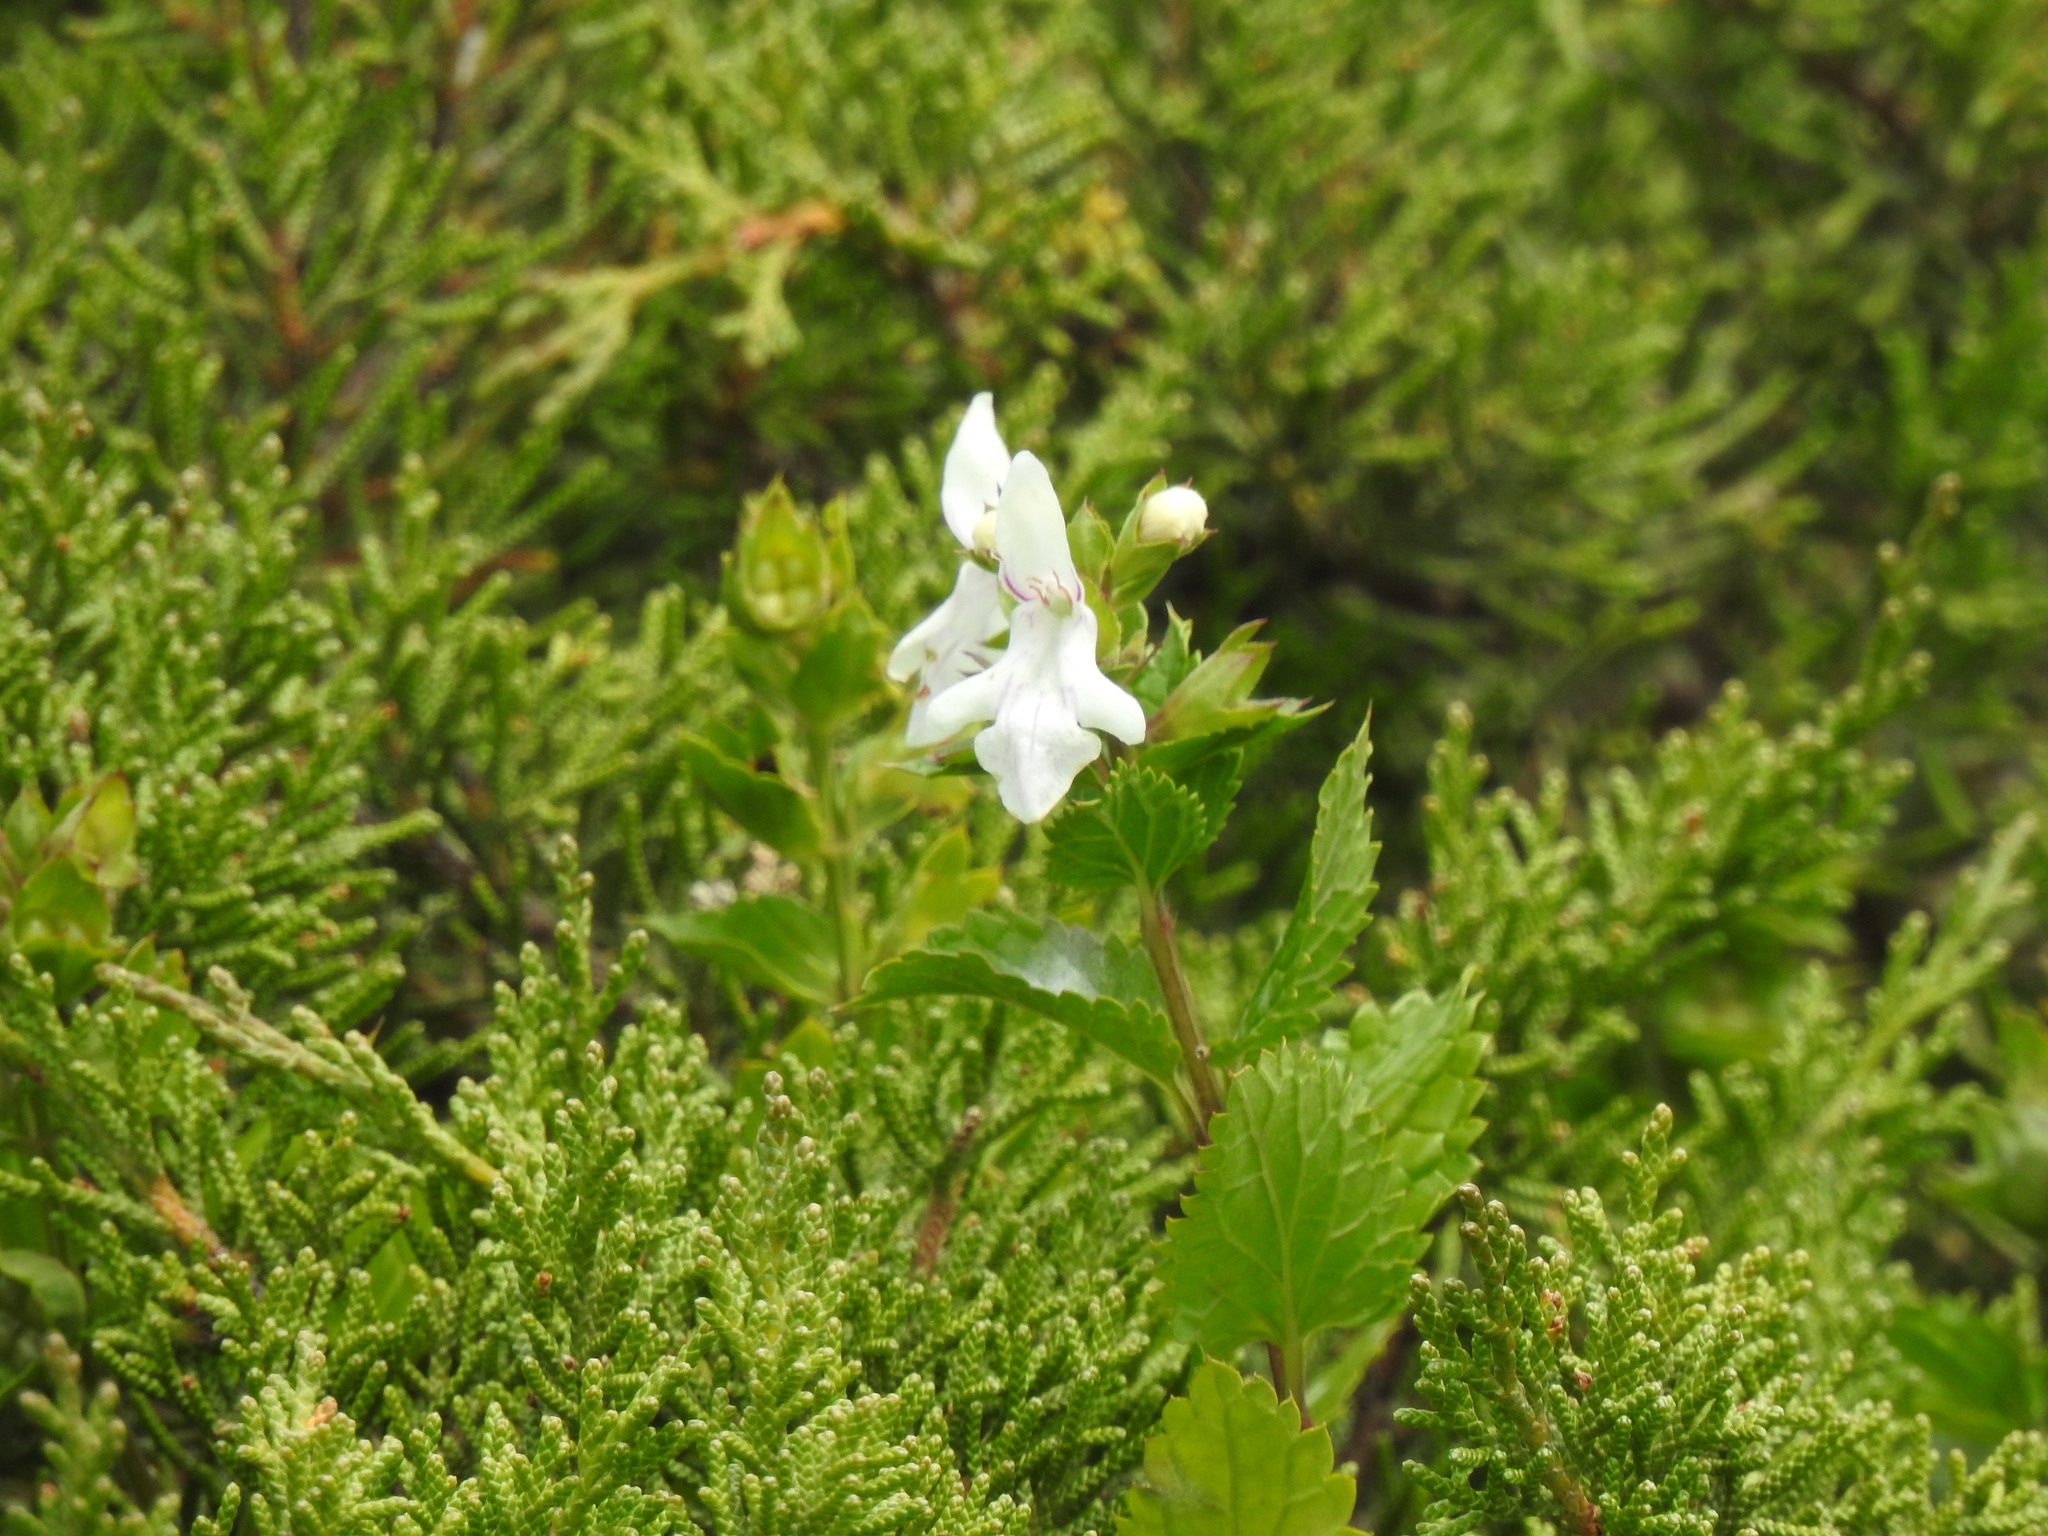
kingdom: Plantae
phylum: Tracheophyta
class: Magnoliopsida
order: Lamiales
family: Lamiaceae
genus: Prasium
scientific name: Prasium majus
